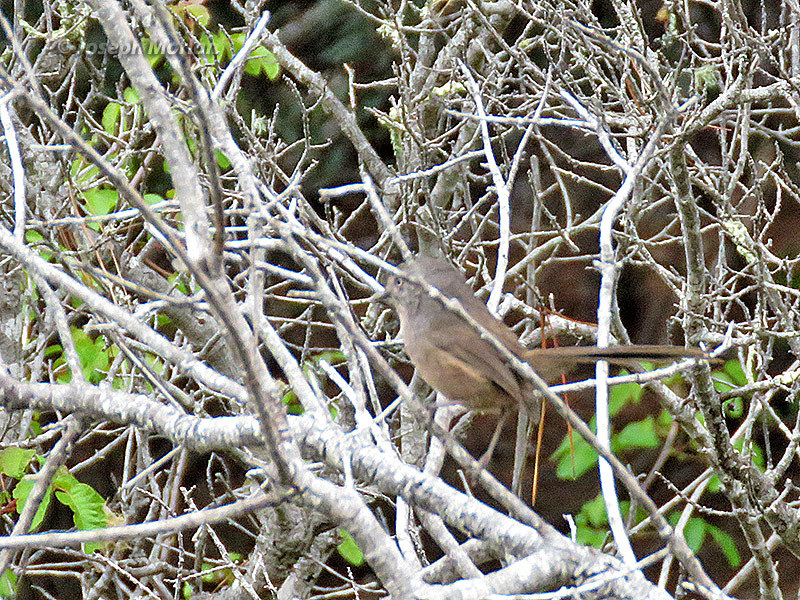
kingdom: Animalia
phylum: Chordata
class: Aves
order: Passeriformes
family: Sylviidae
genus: Chamaea
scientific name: Chamaea fasciata
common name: Wrentit
